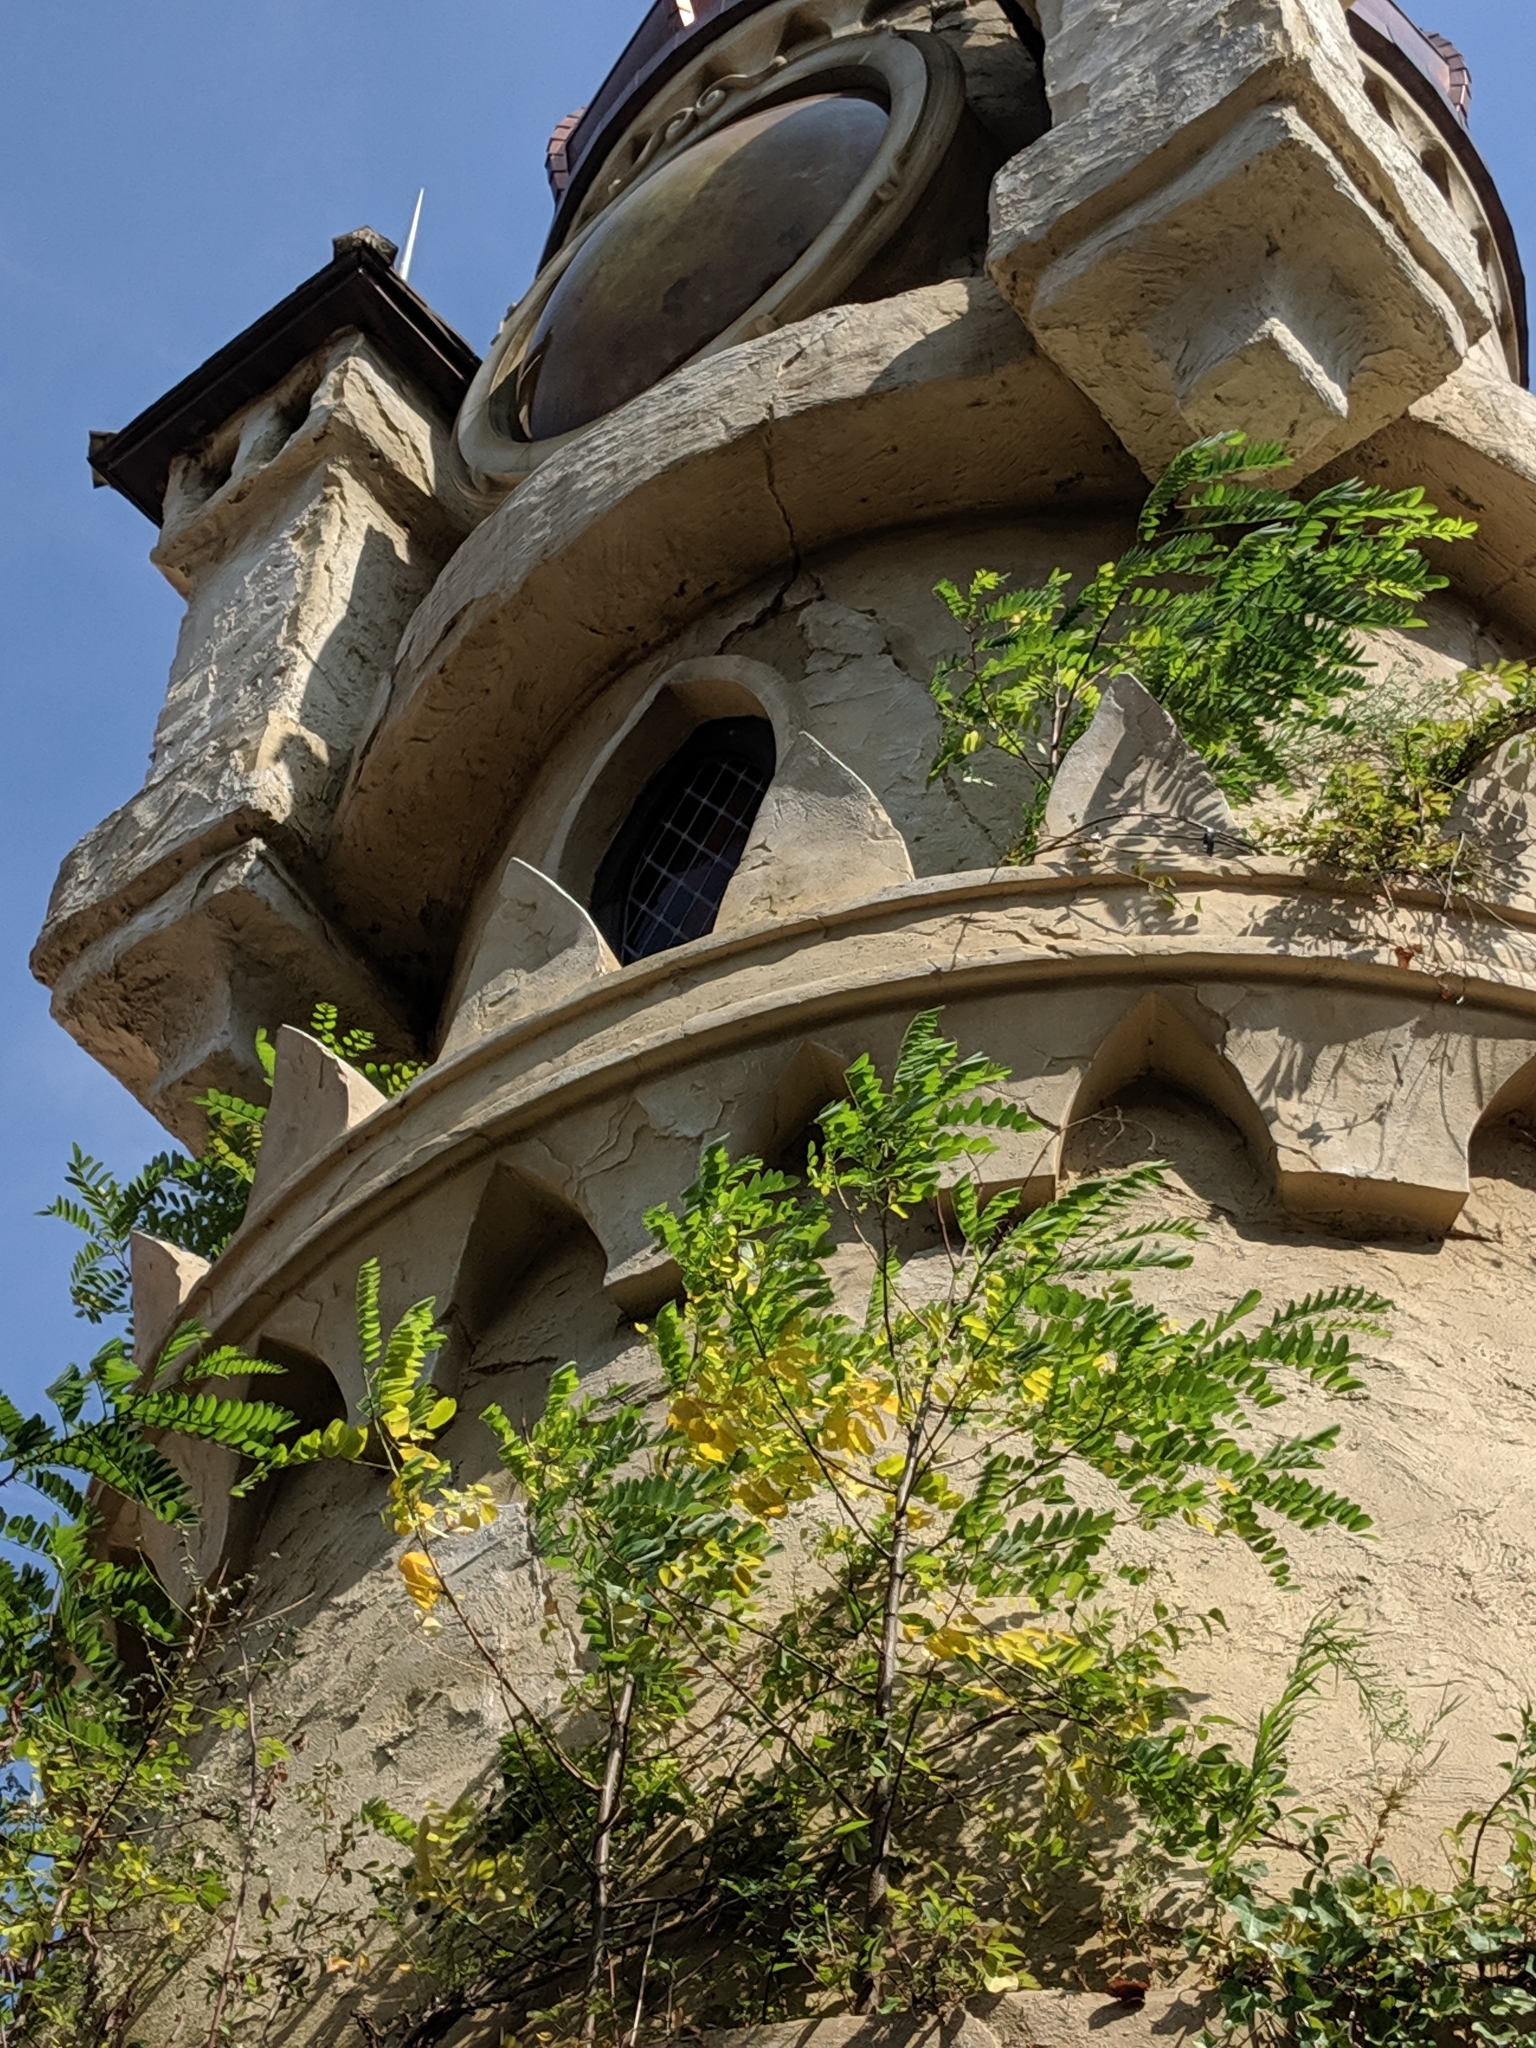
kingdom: Plantae
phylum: Tracheophyta
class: Magnoliopsida
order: Fabales
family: Fabaceae
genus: Robinia
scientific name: Robinia pseudoacacia
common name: Black locust
